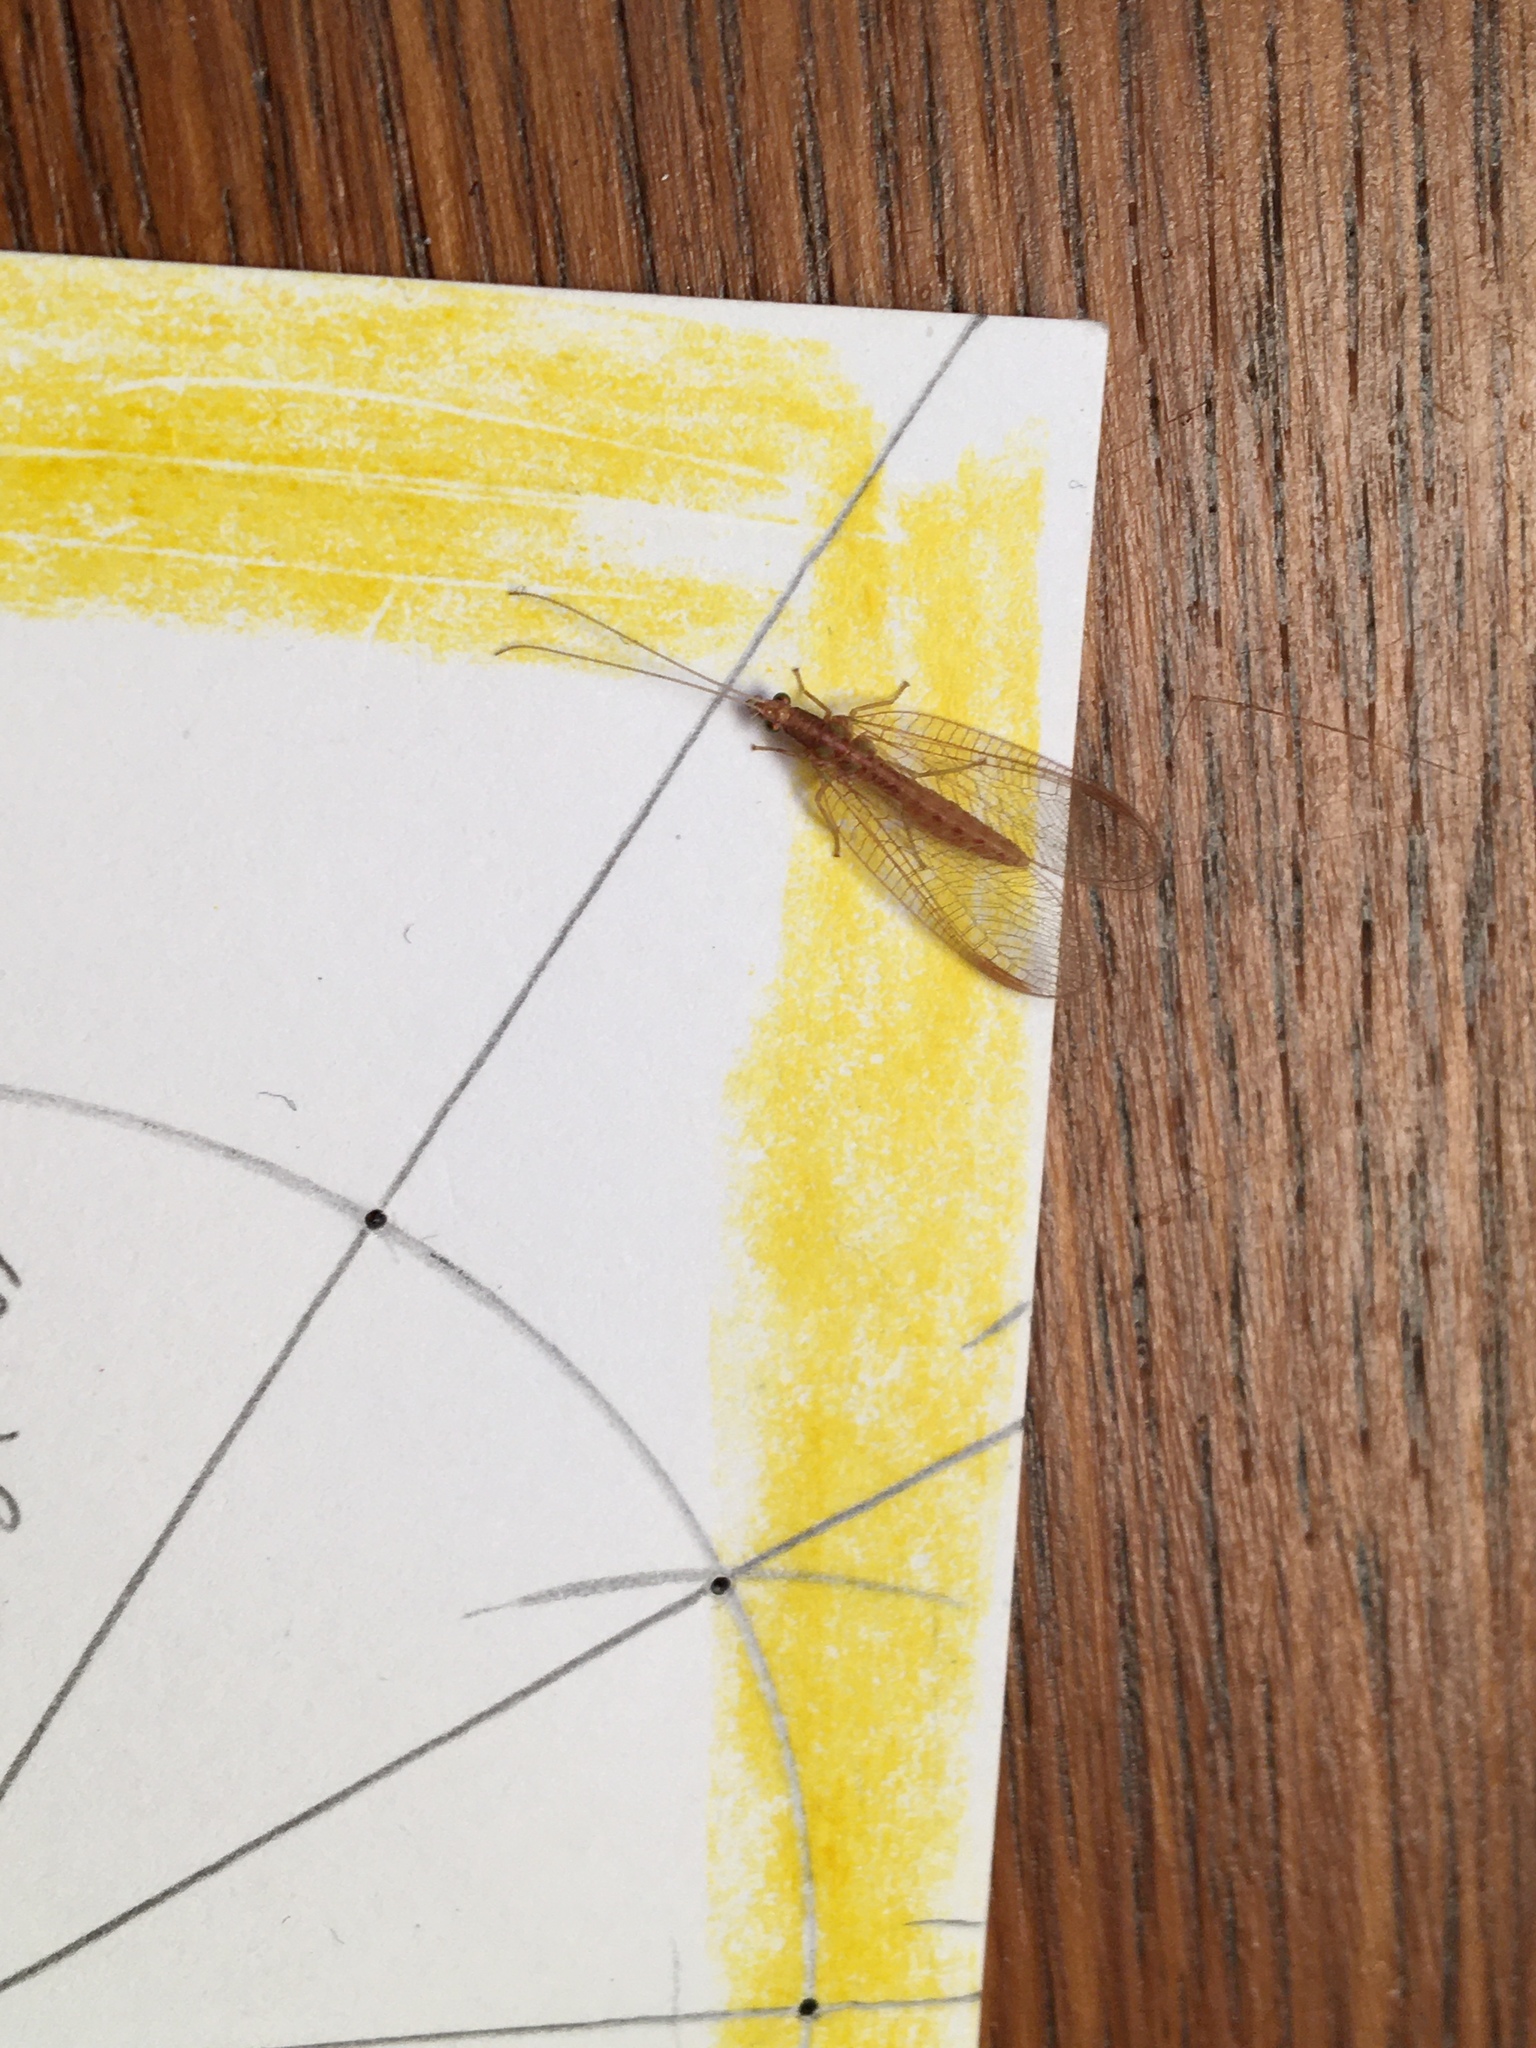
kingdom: Animalia
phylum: Arthropoda
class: Insecta
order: Neuroptera
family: Chrysopidae
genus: Chrysoperla
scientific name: Chrysoperla
